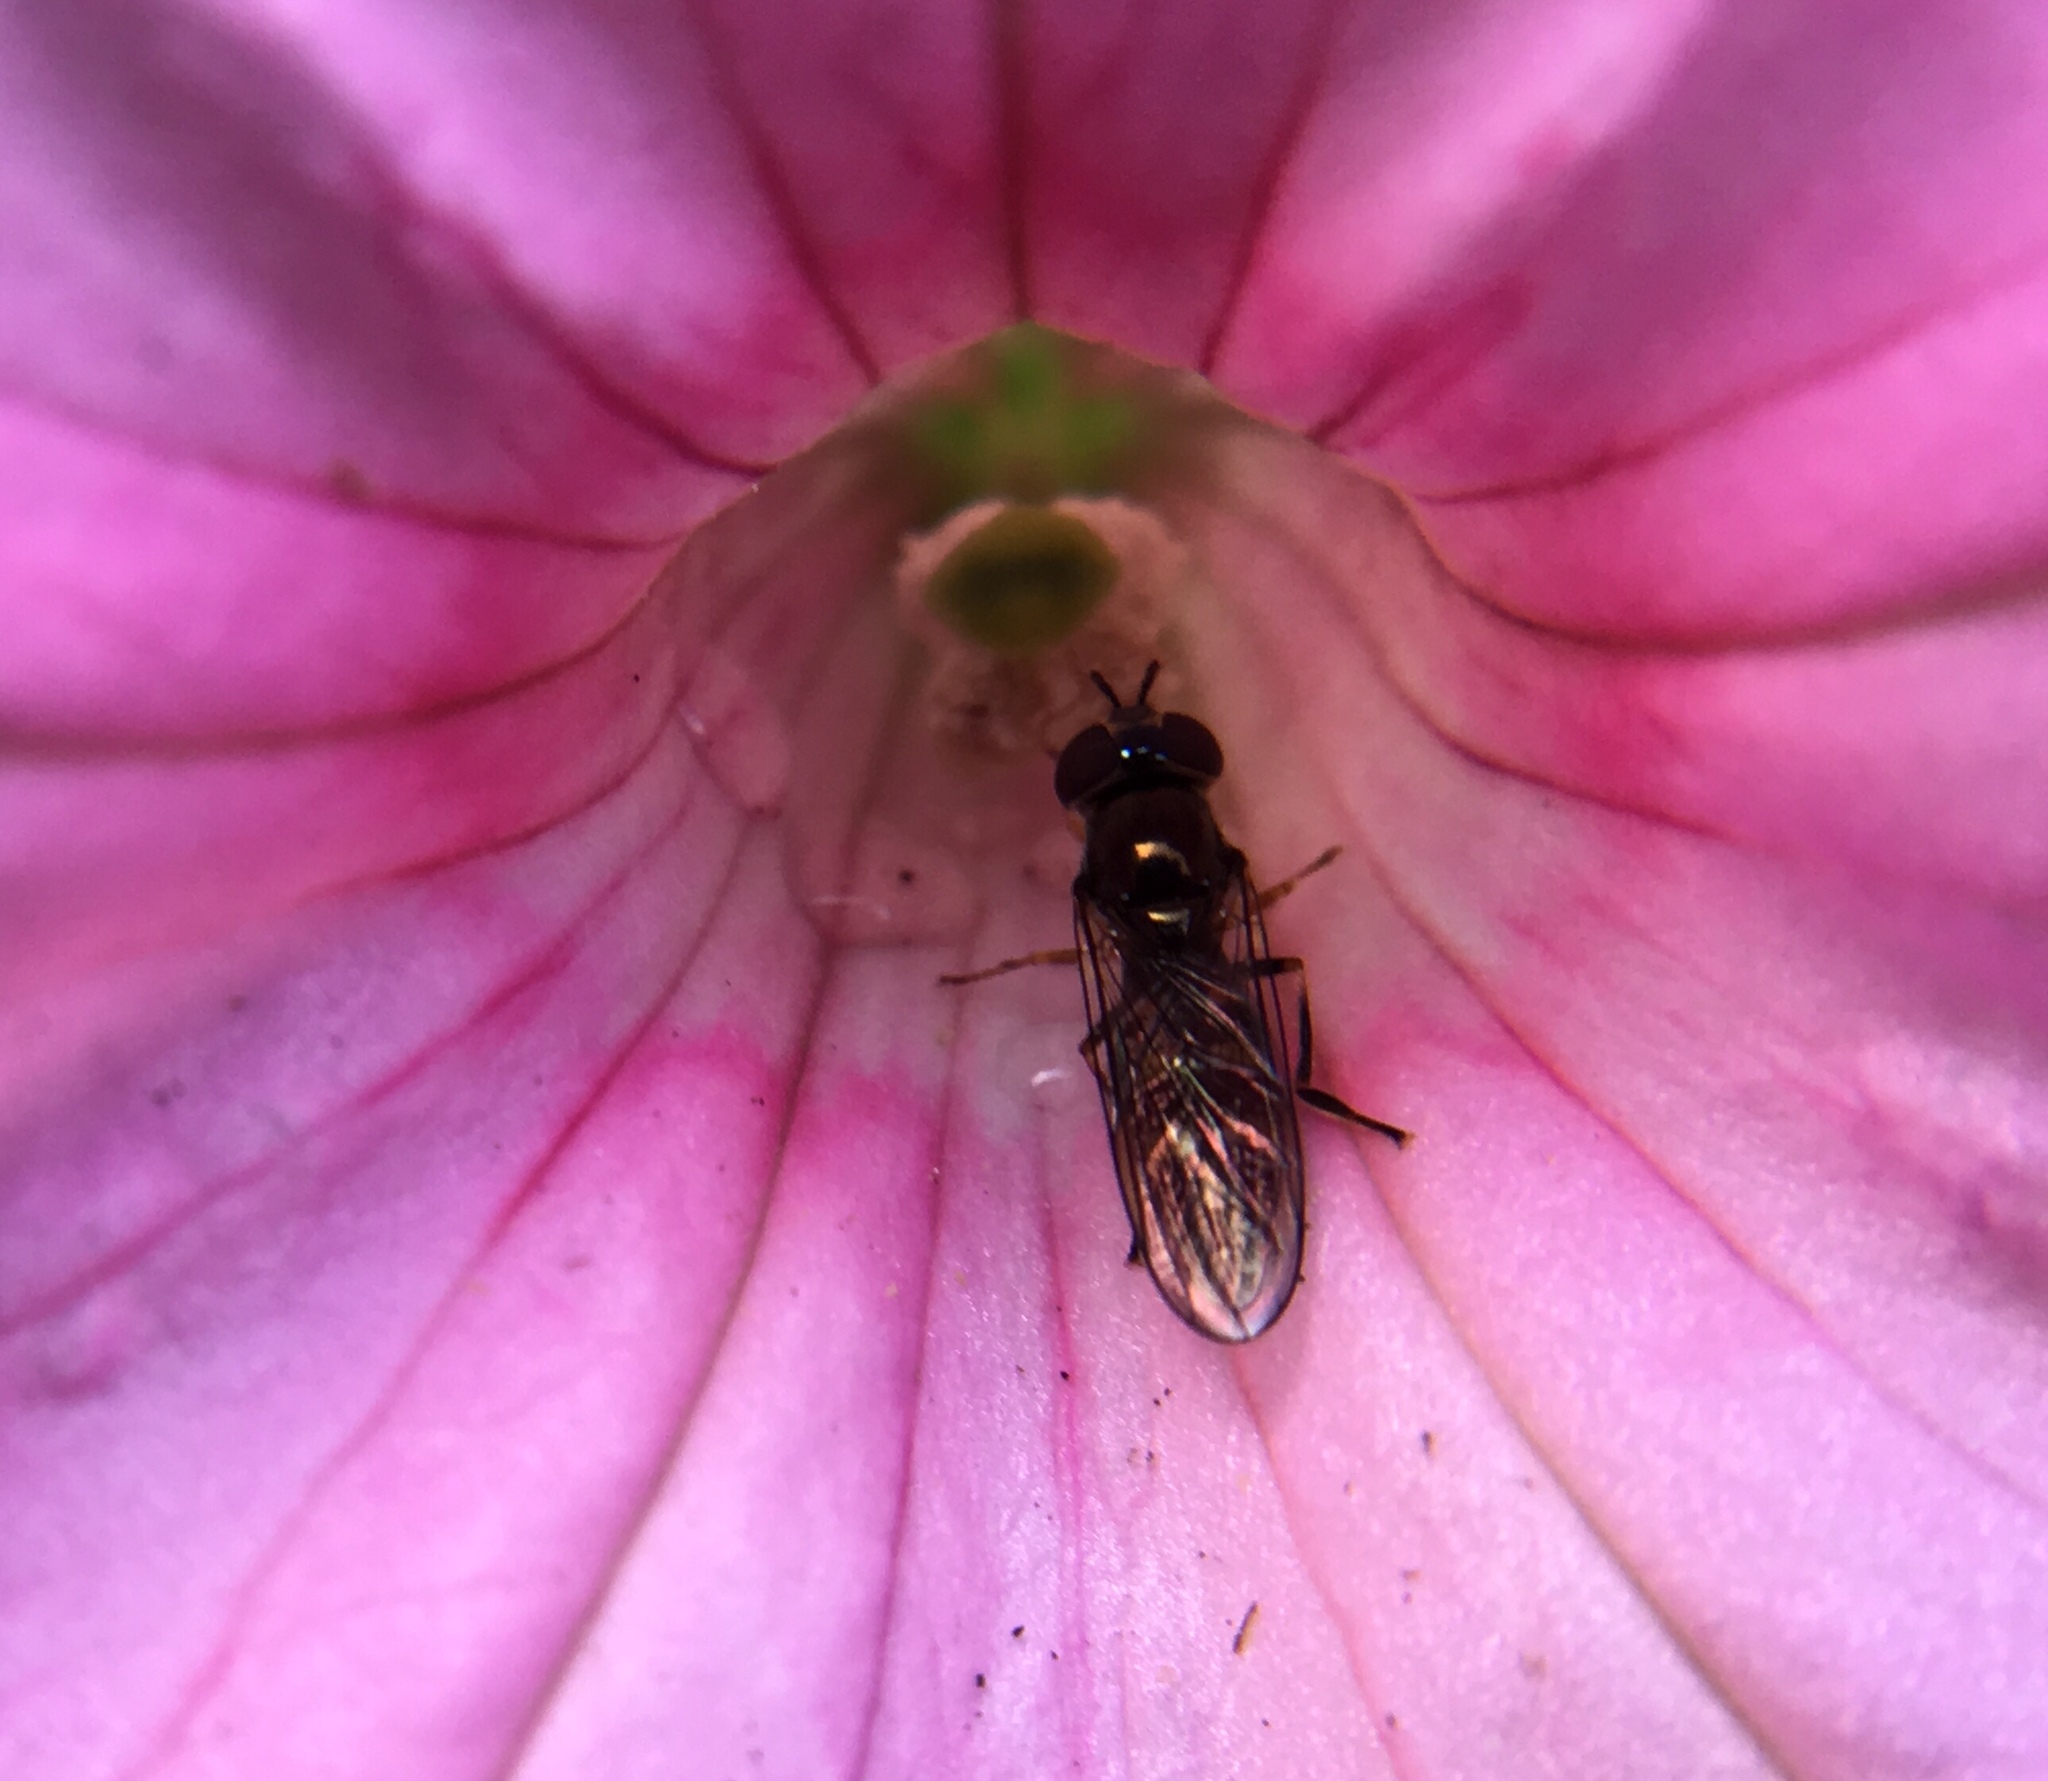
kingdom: Animalia
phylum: Arthropoda
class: Insecta
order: Diptera
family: Syrphidae
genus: Platycheirus
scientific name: Platycheirus
